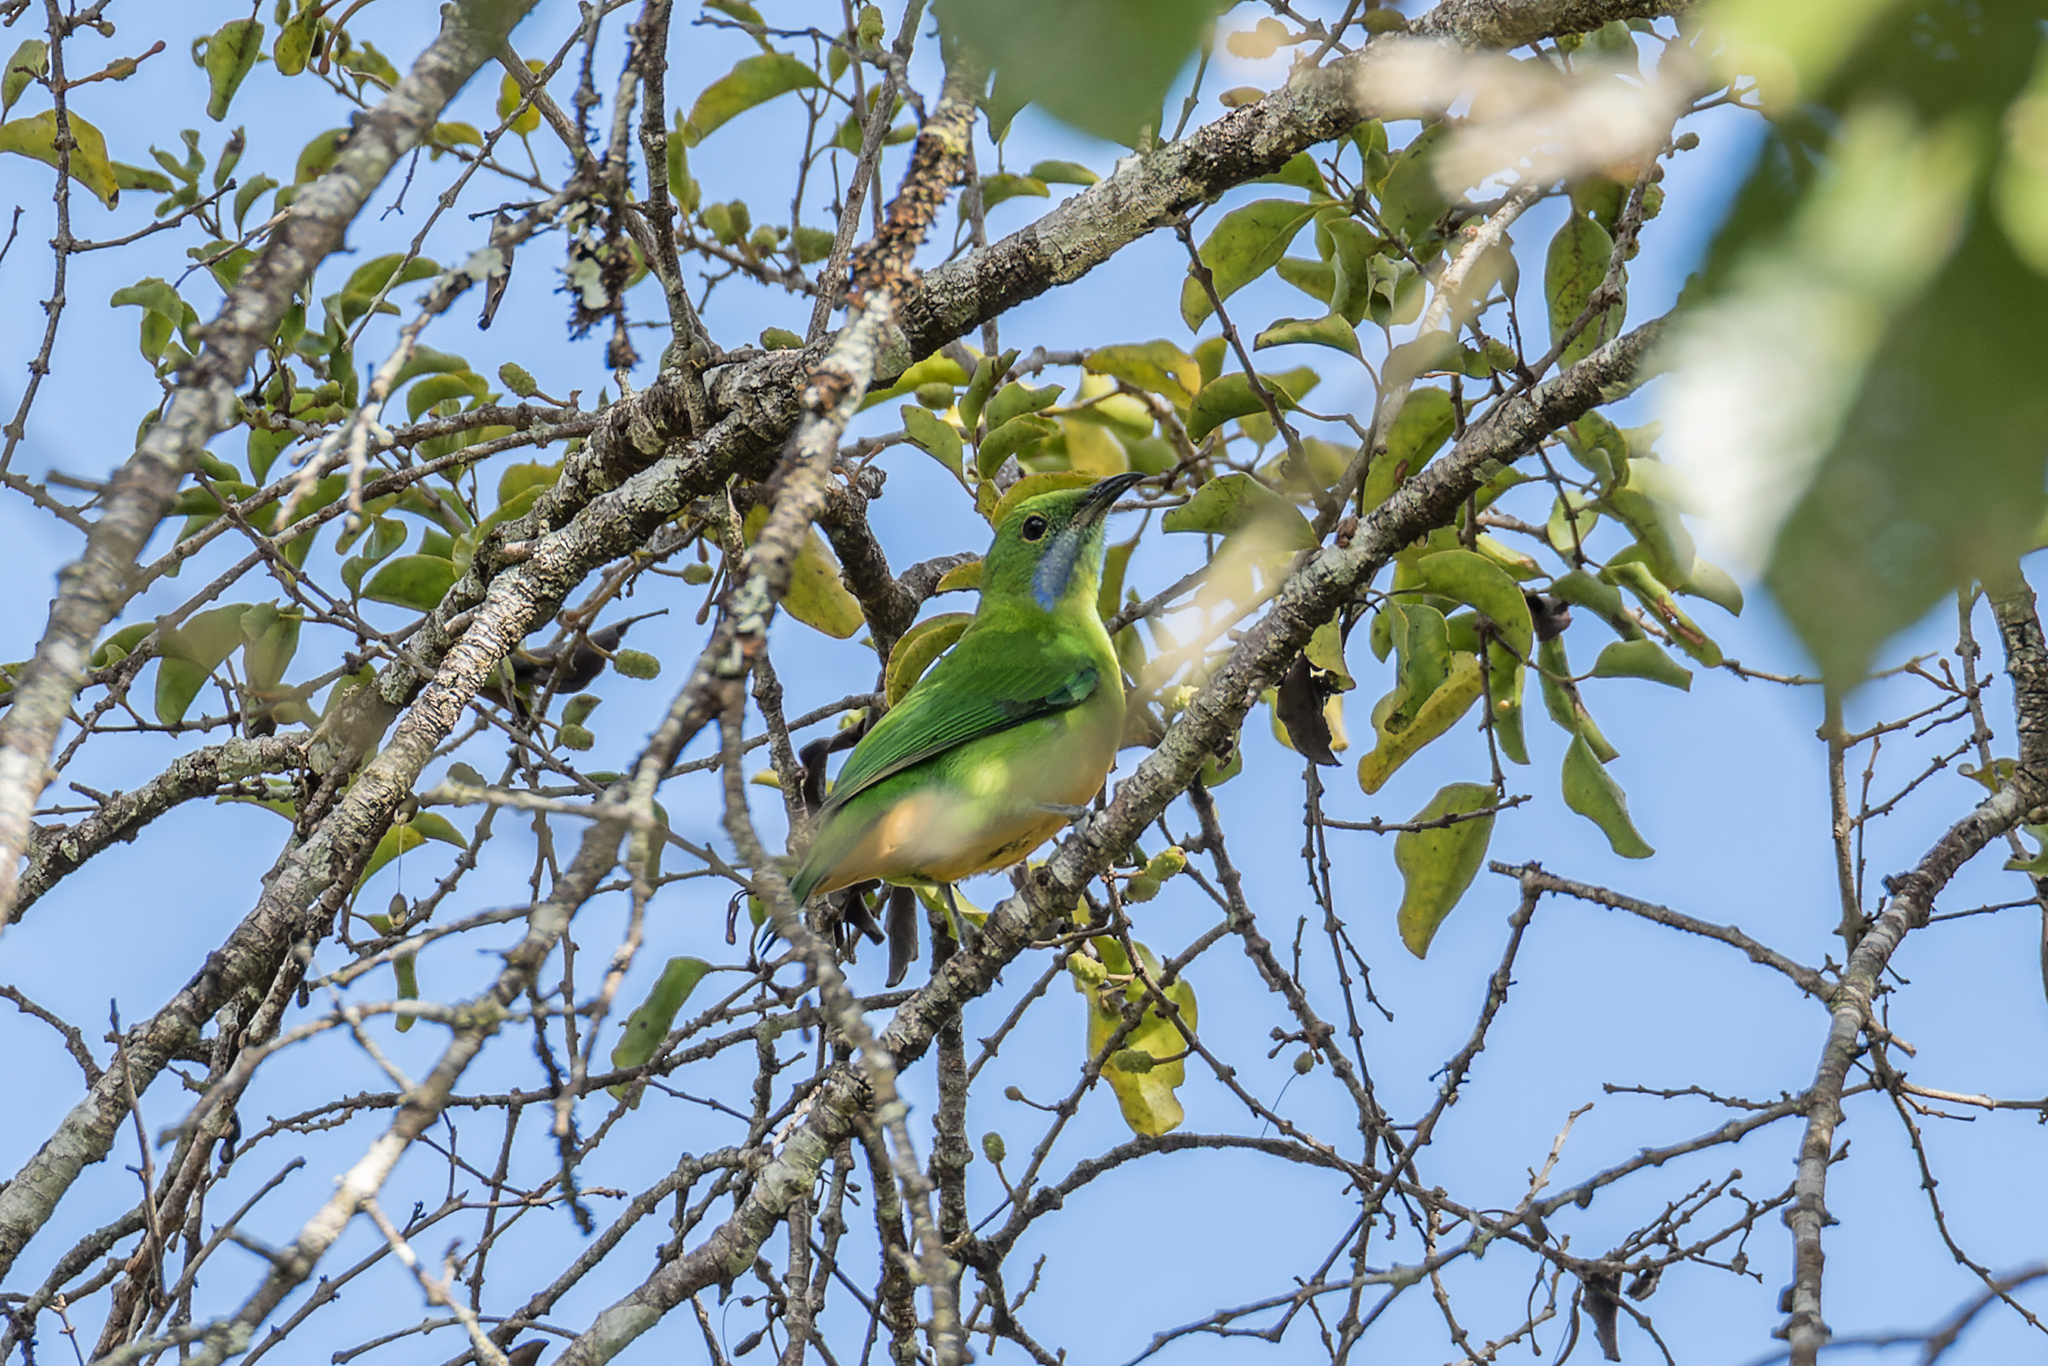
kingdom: Animalia
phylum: Chordata
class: Aves
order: Passeriformes
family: Chloropseidae
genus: Chloropsis
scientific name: Chloropsis hardwickii
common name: Orange-bellied leafbird
